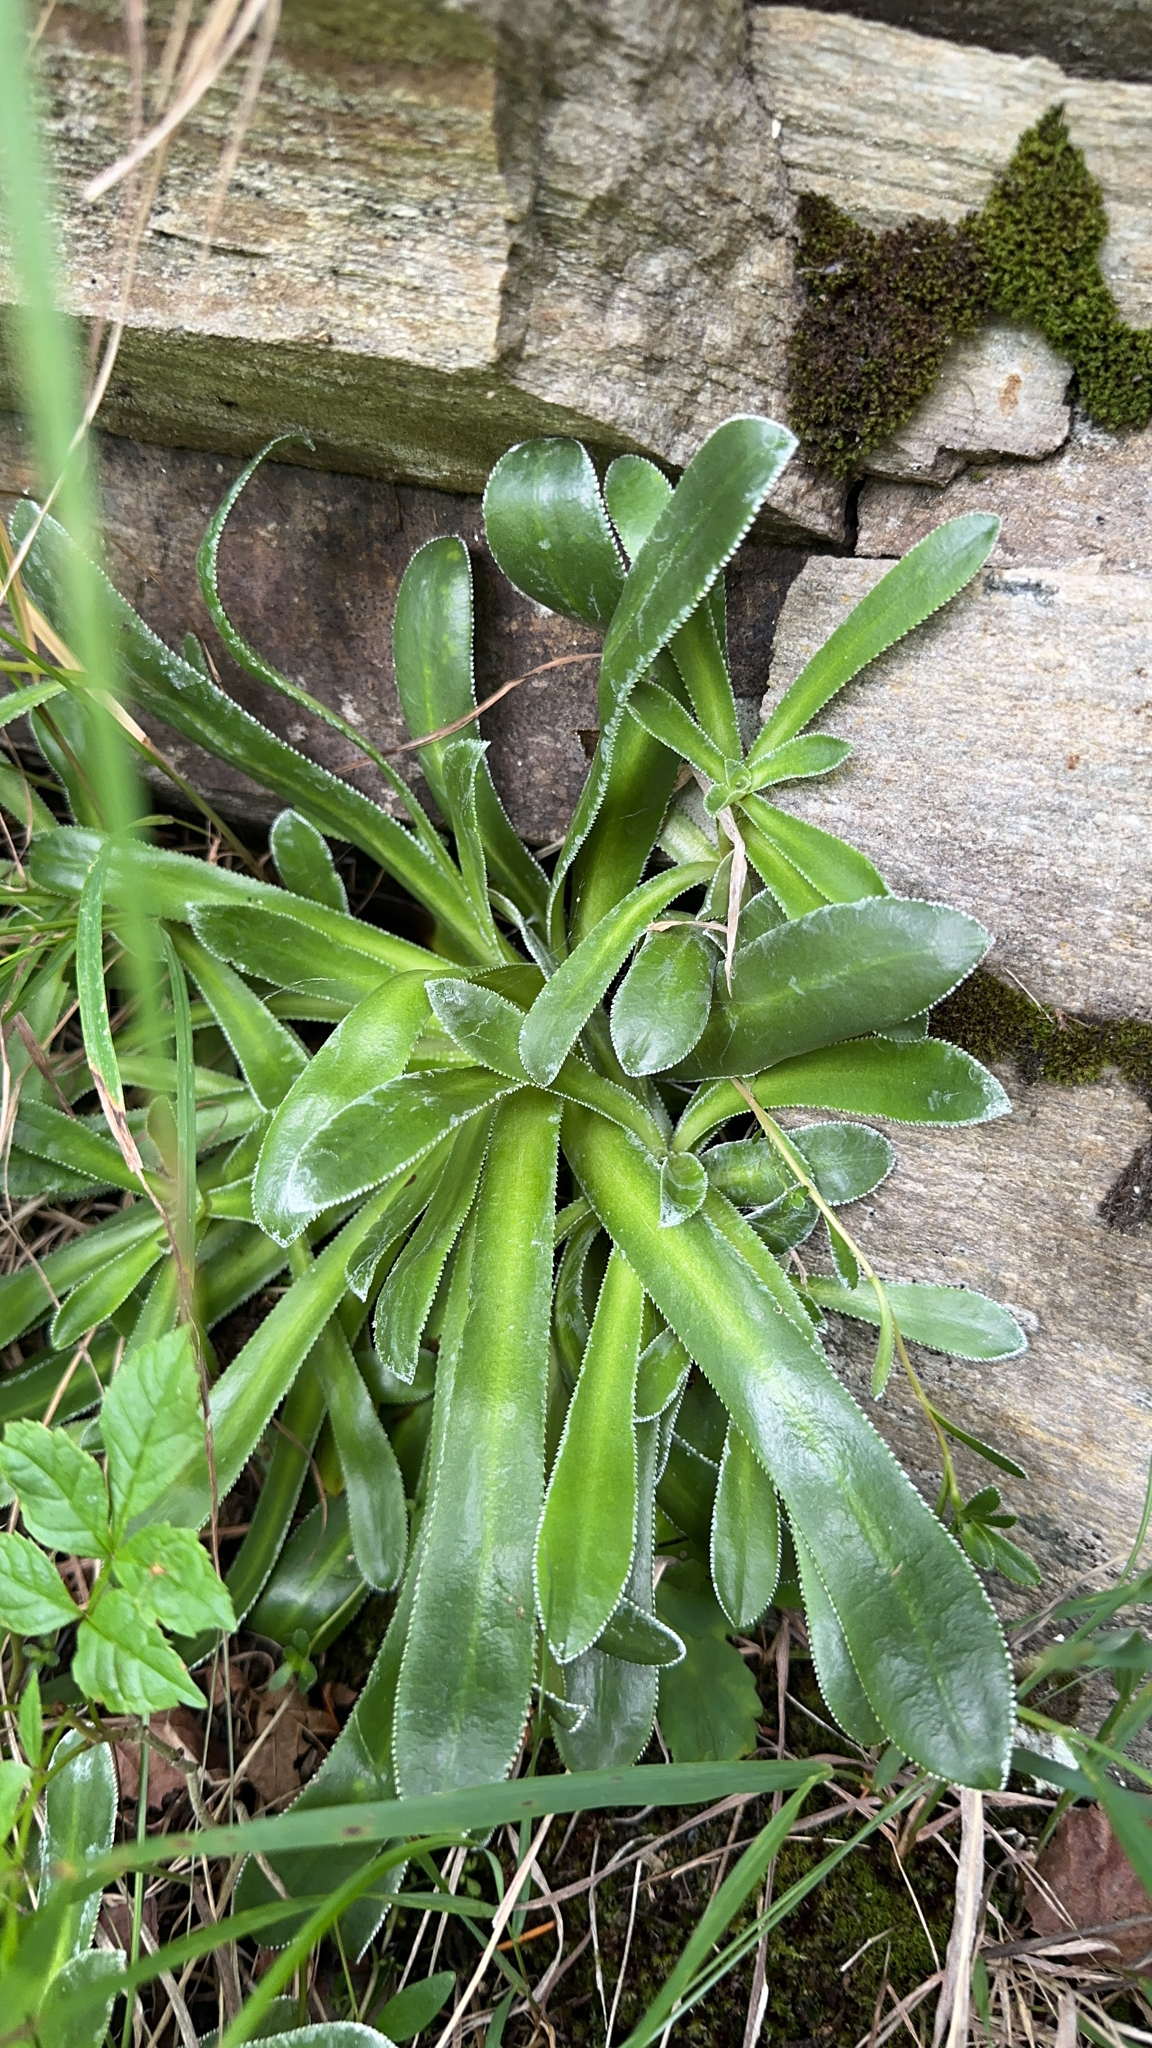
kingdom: Plantae
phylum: Tracheophyta
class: Magnoliopsida
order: Saxifragales
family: Saxifragaceae
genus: Saxifraga
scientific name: Saxifraga cotyledon
